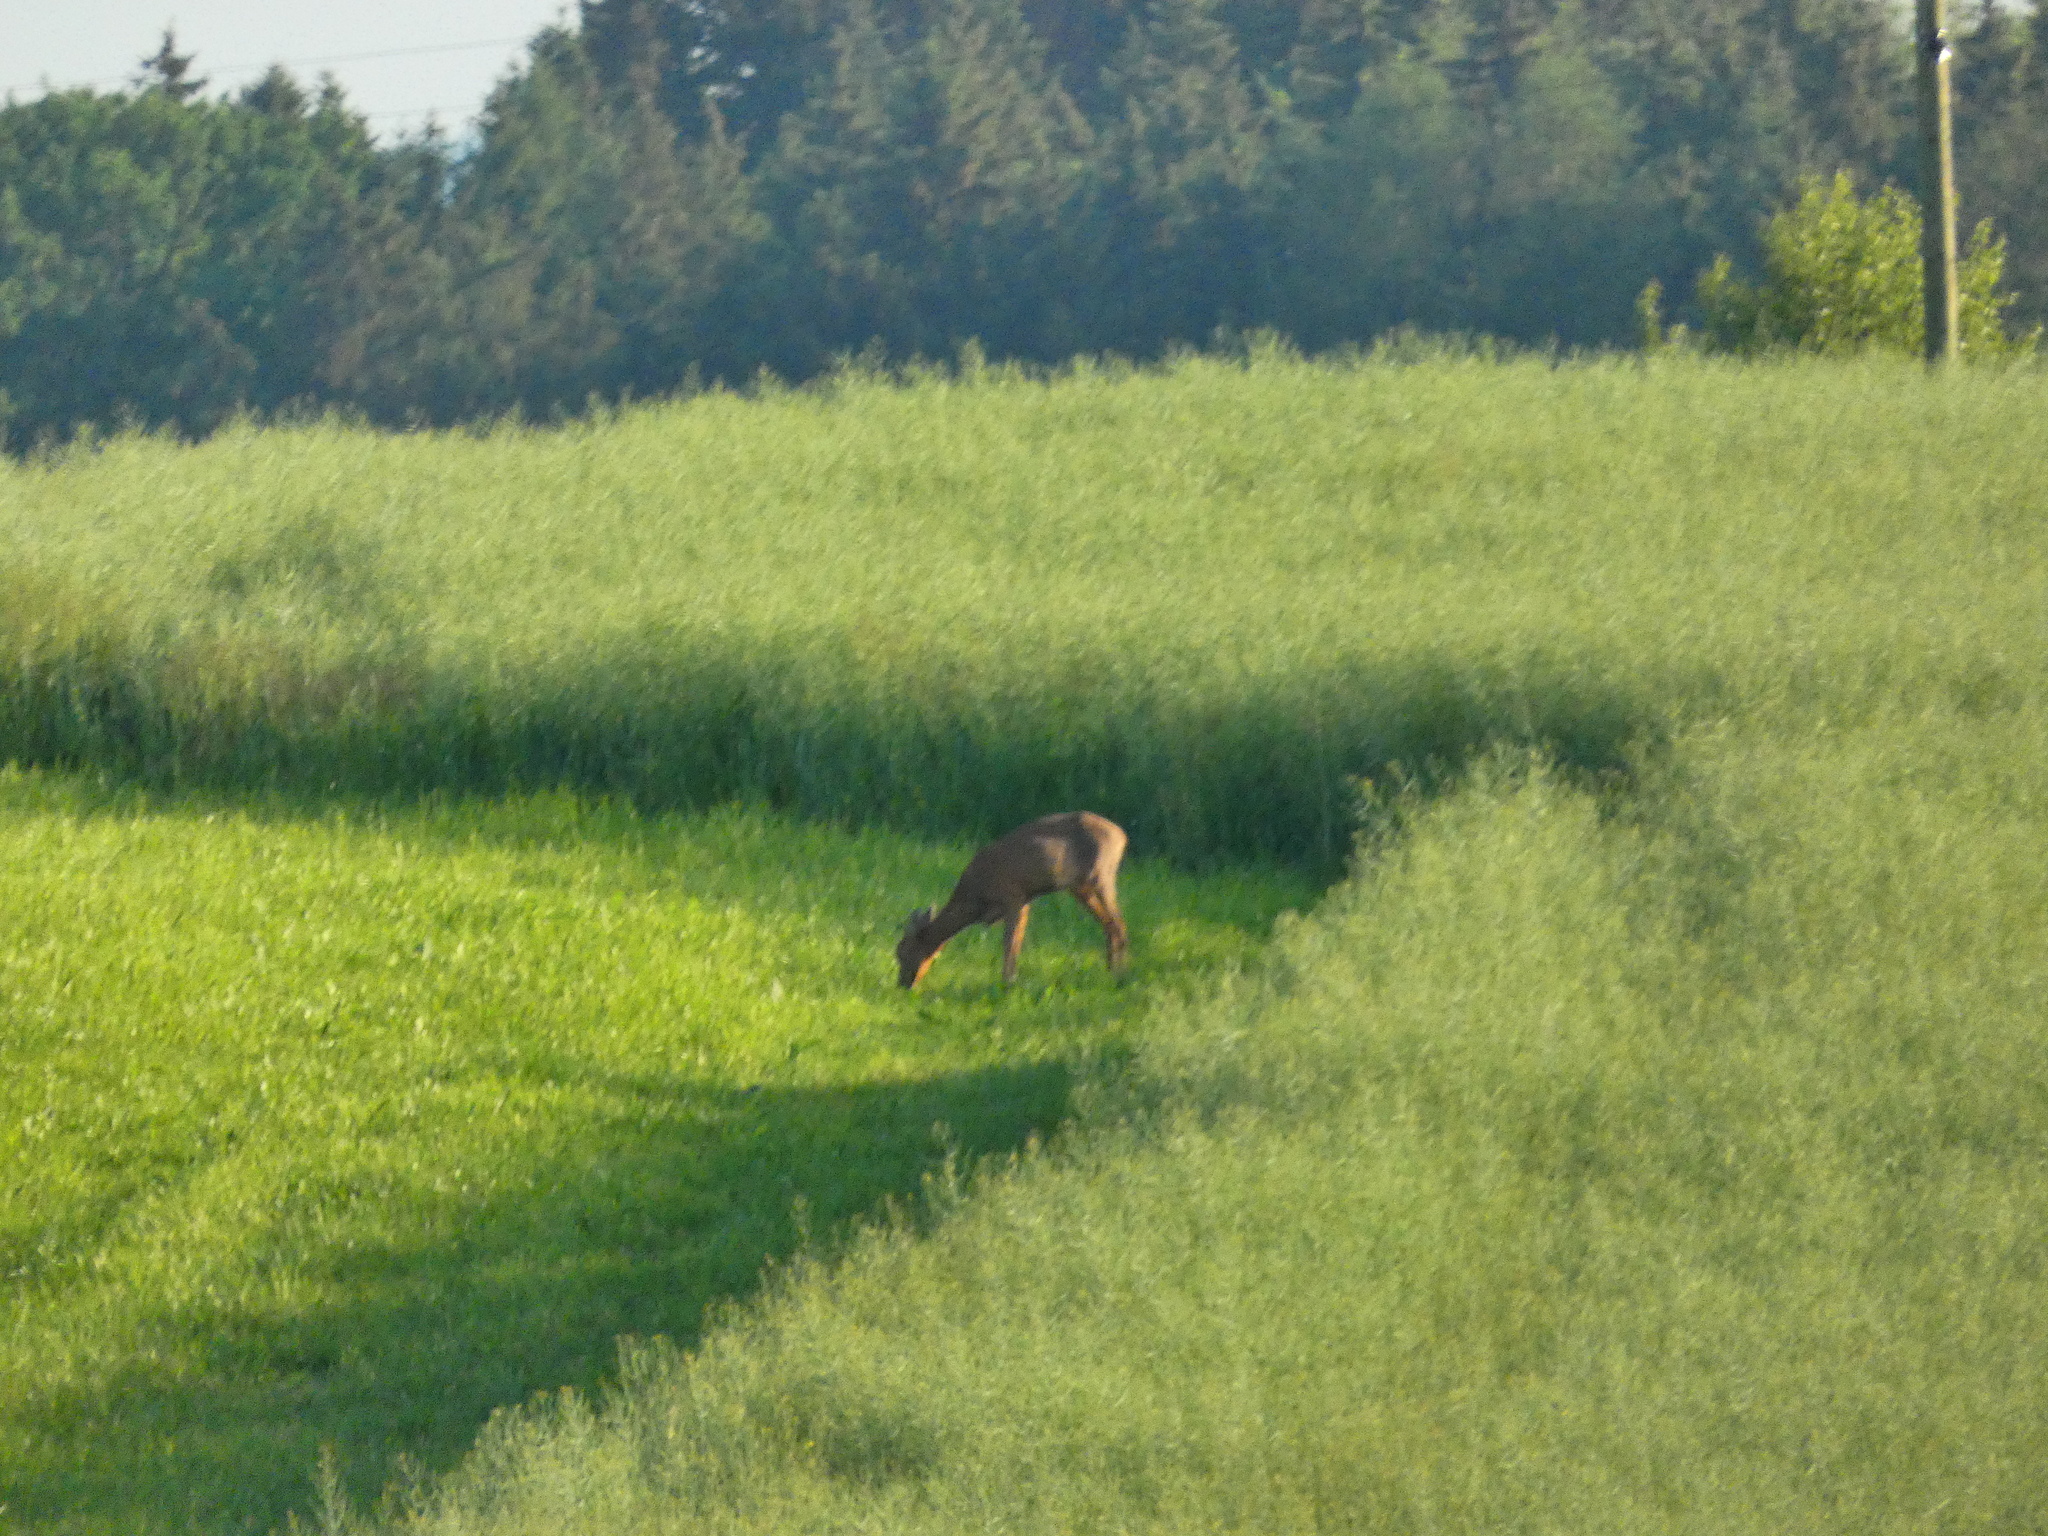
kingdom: Animalia
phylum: Chordata
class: Mammalia
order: Artiodactyla
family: Cervidae
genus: Capreolus
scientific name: Capreolus capreolus
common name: Western roe deer
